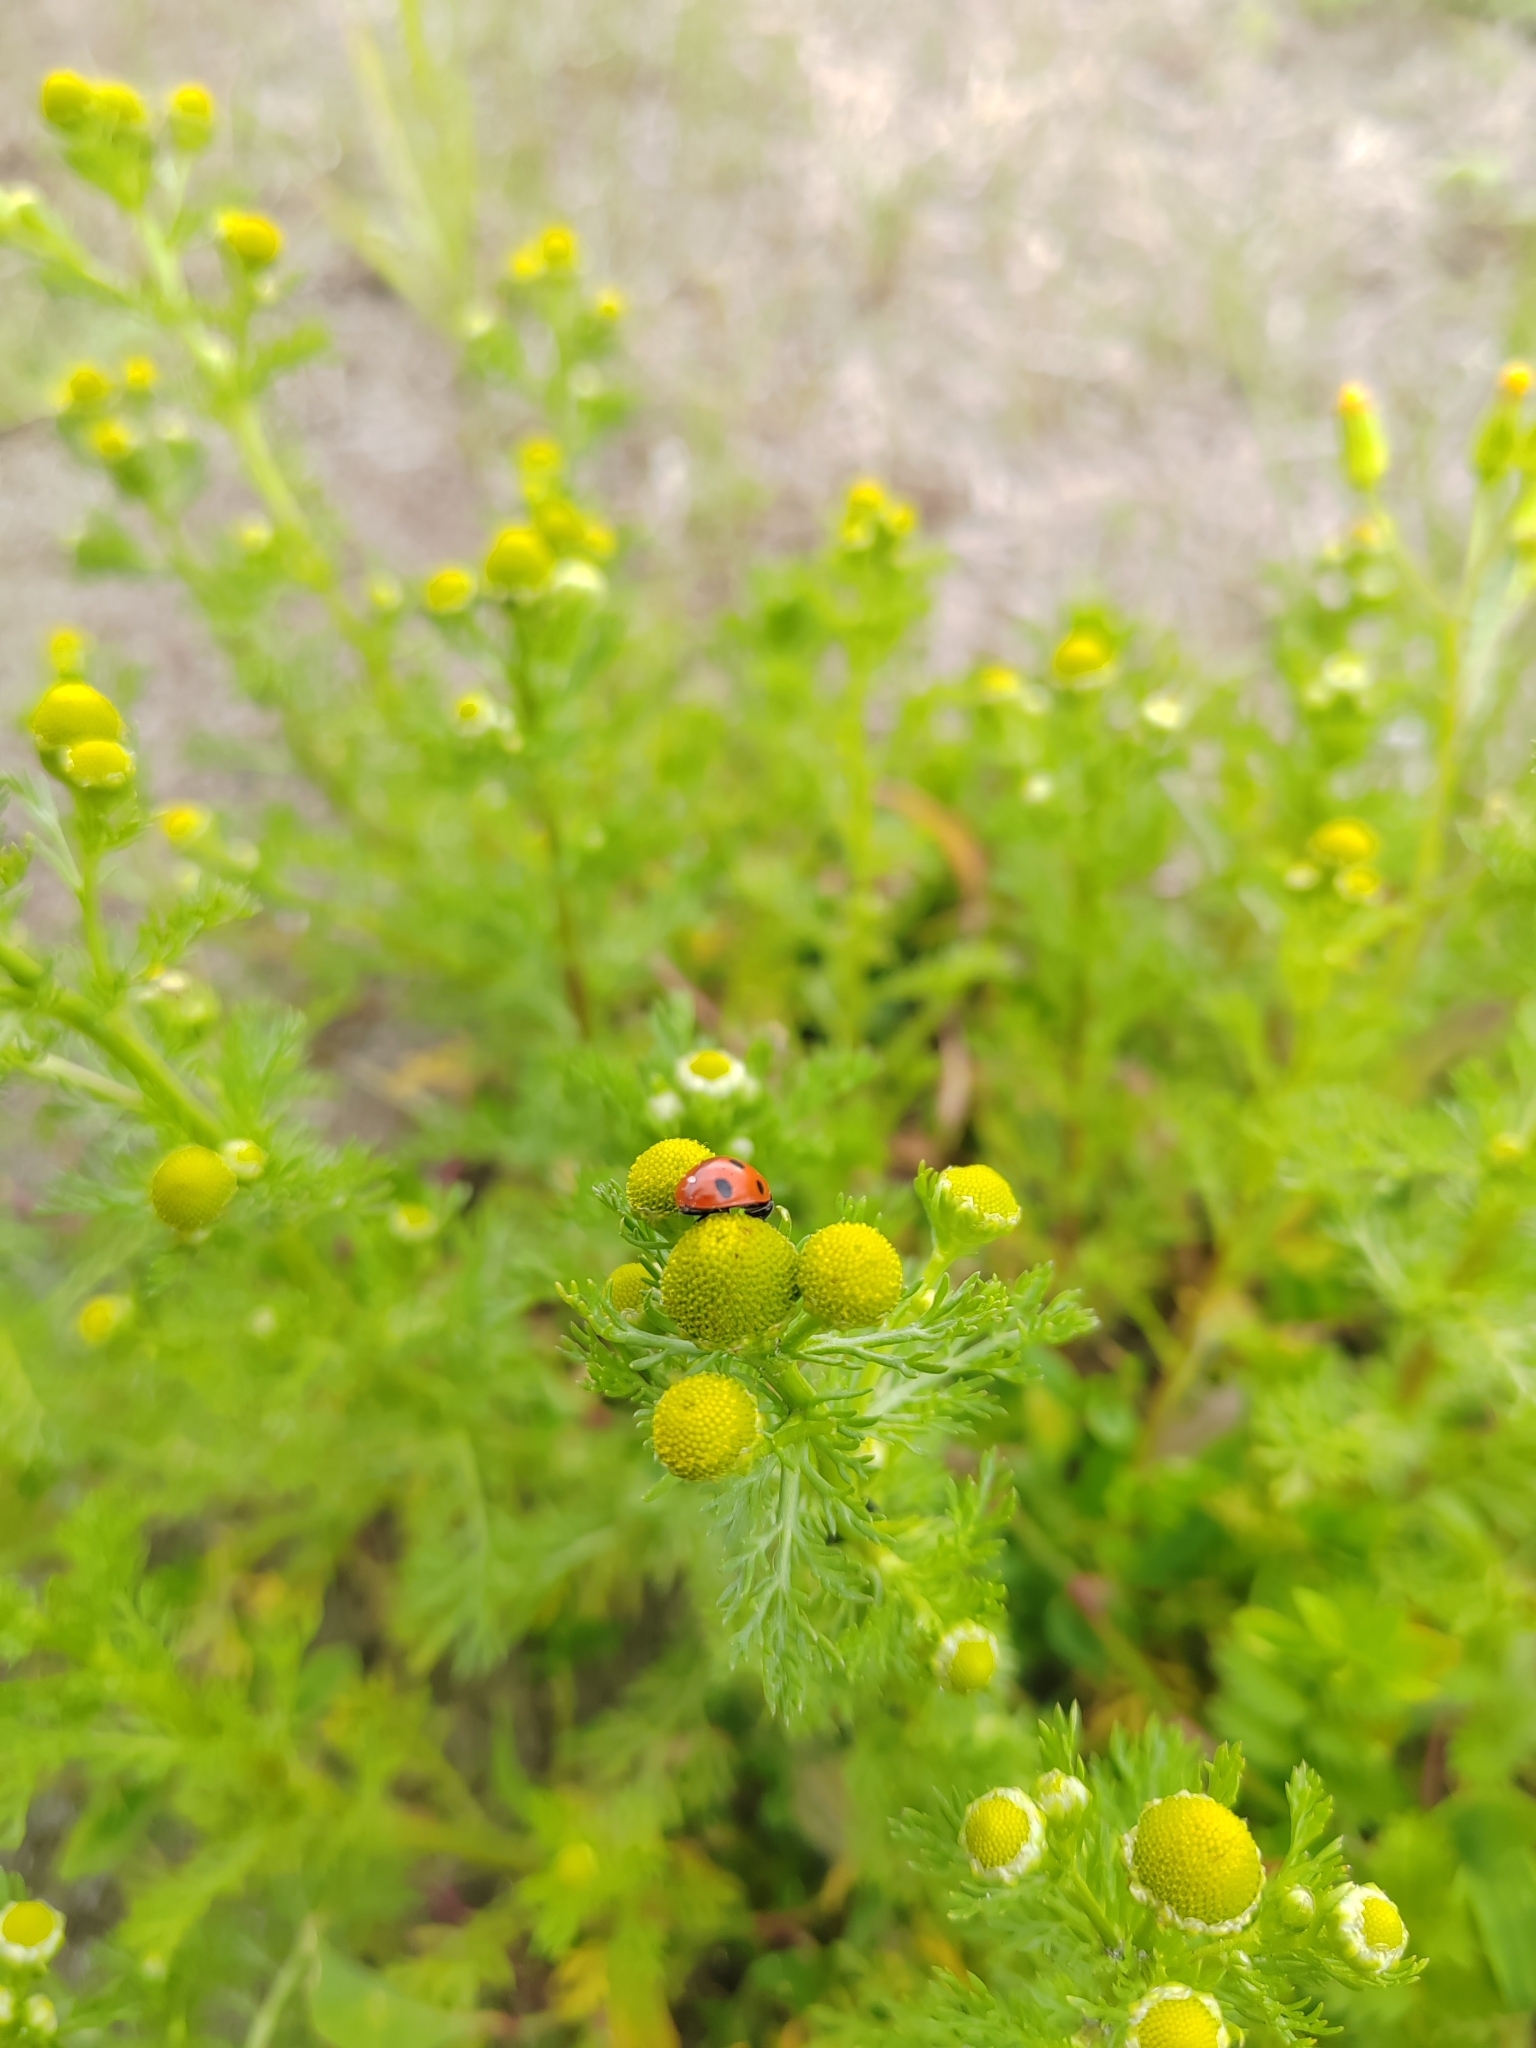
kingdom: Plantae
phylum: Tracheophyta
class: Magnoliopsida
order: Asterales
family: Asteraceae
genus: Matricaria
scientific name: Matricaria discoidea
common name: Disc mayweed
